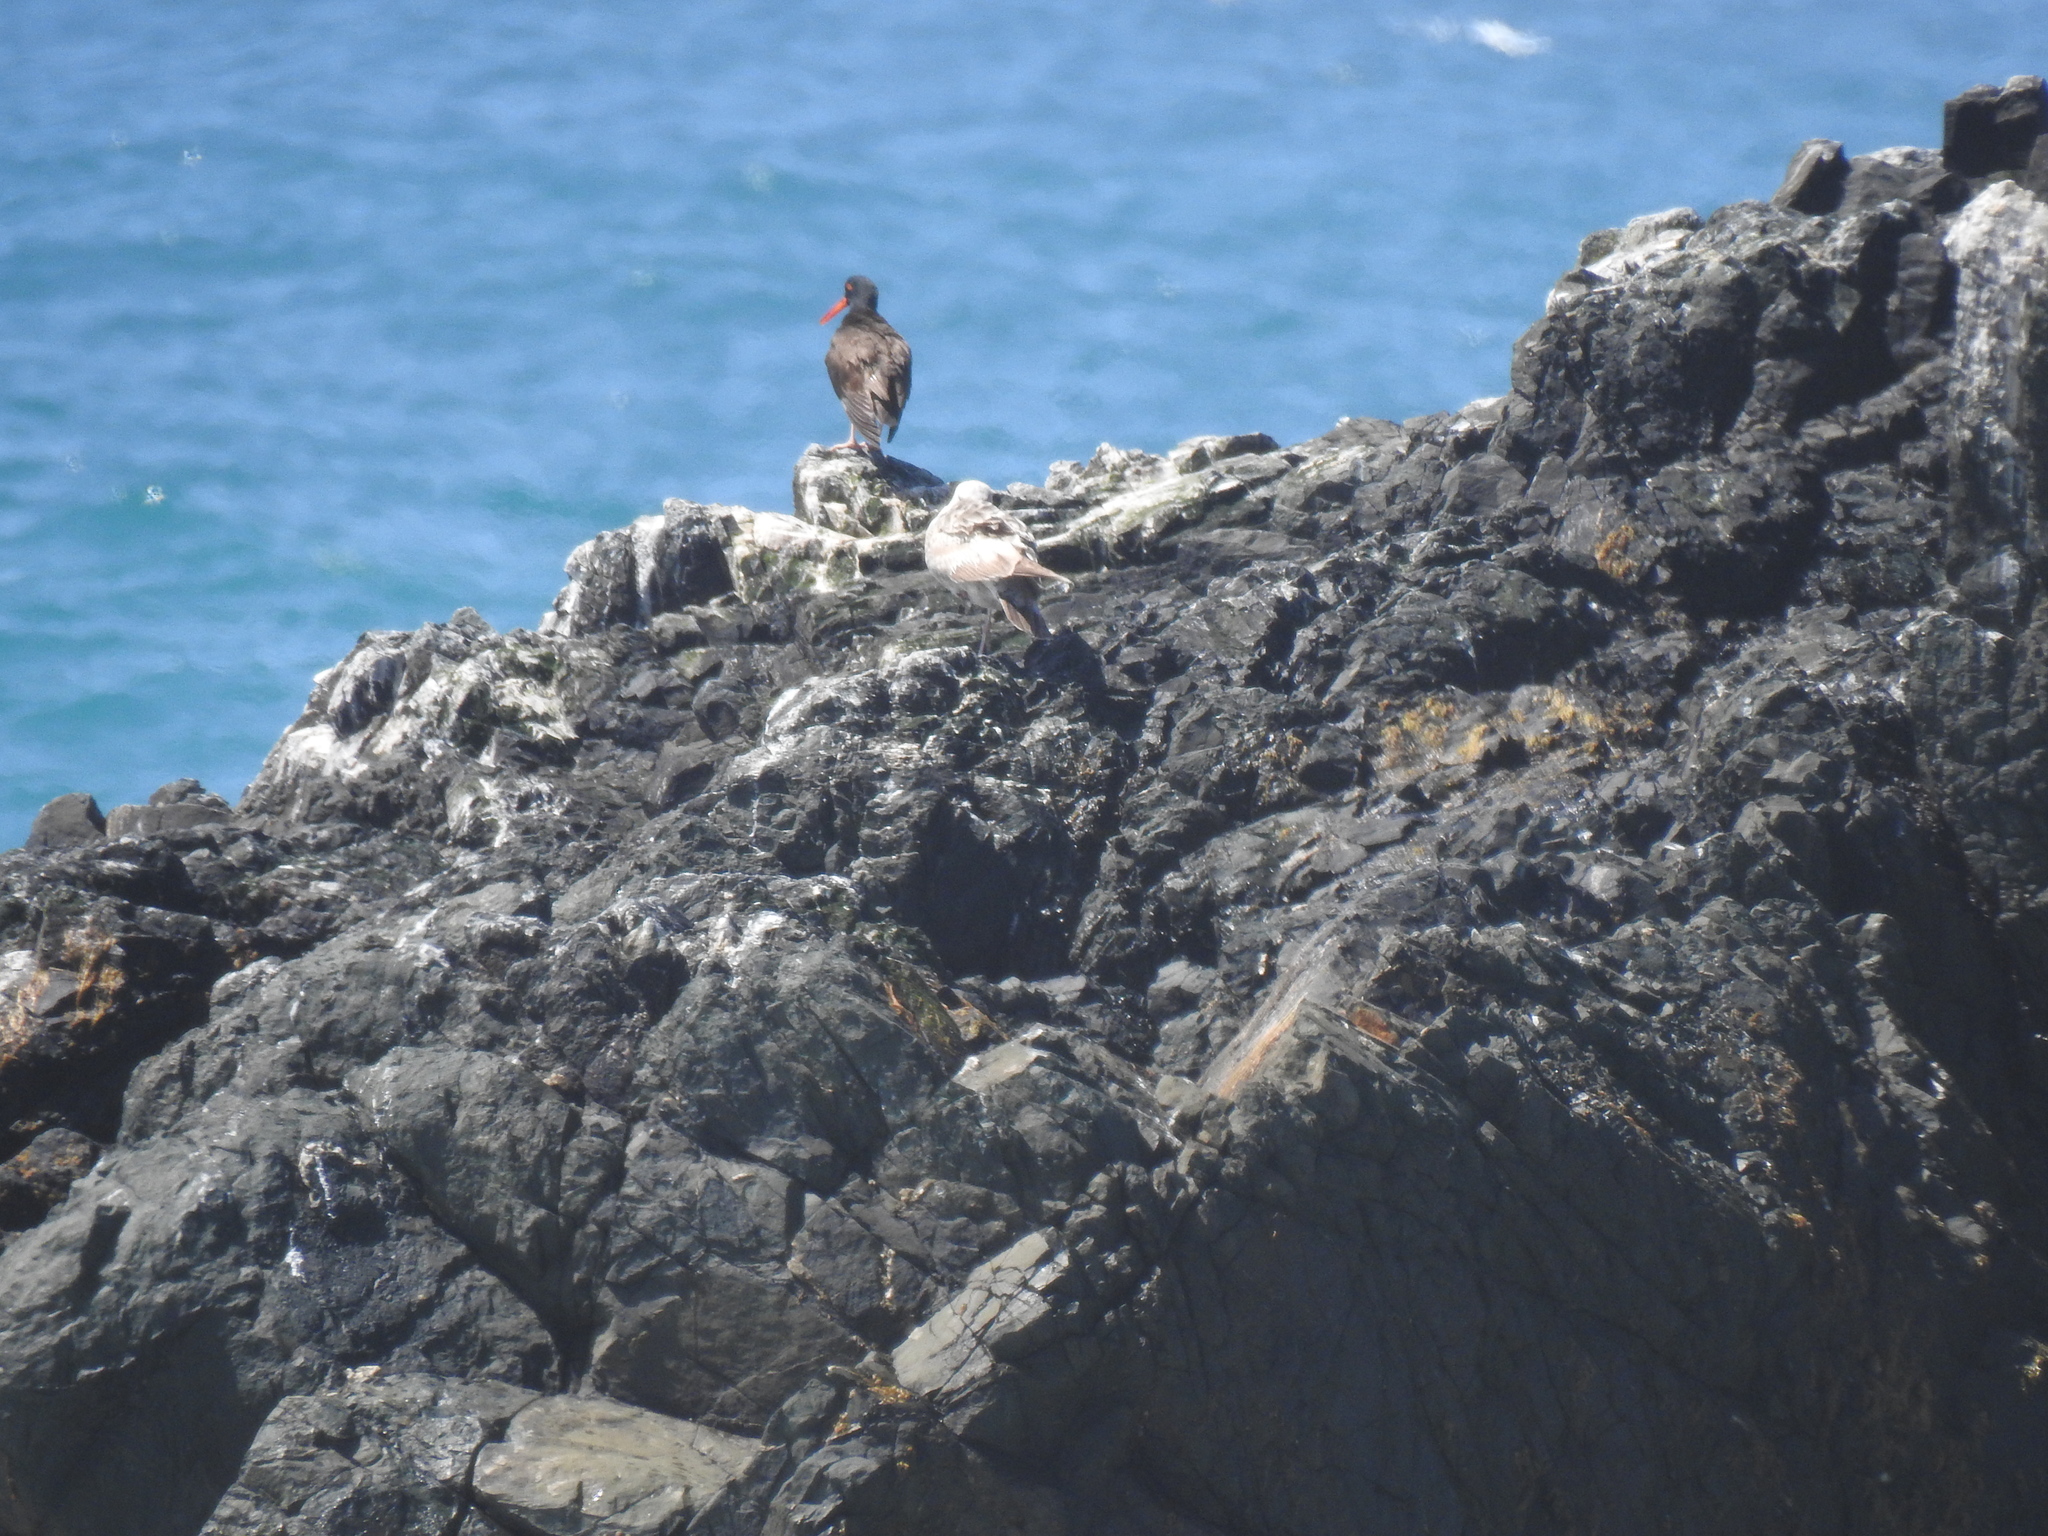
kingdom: Animalia
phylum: Chordata
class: Aves
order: Charadriiformes
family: Haematopodidae
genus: Haematopus
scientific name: Haematopus bachmani
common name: Black oystercatcher
